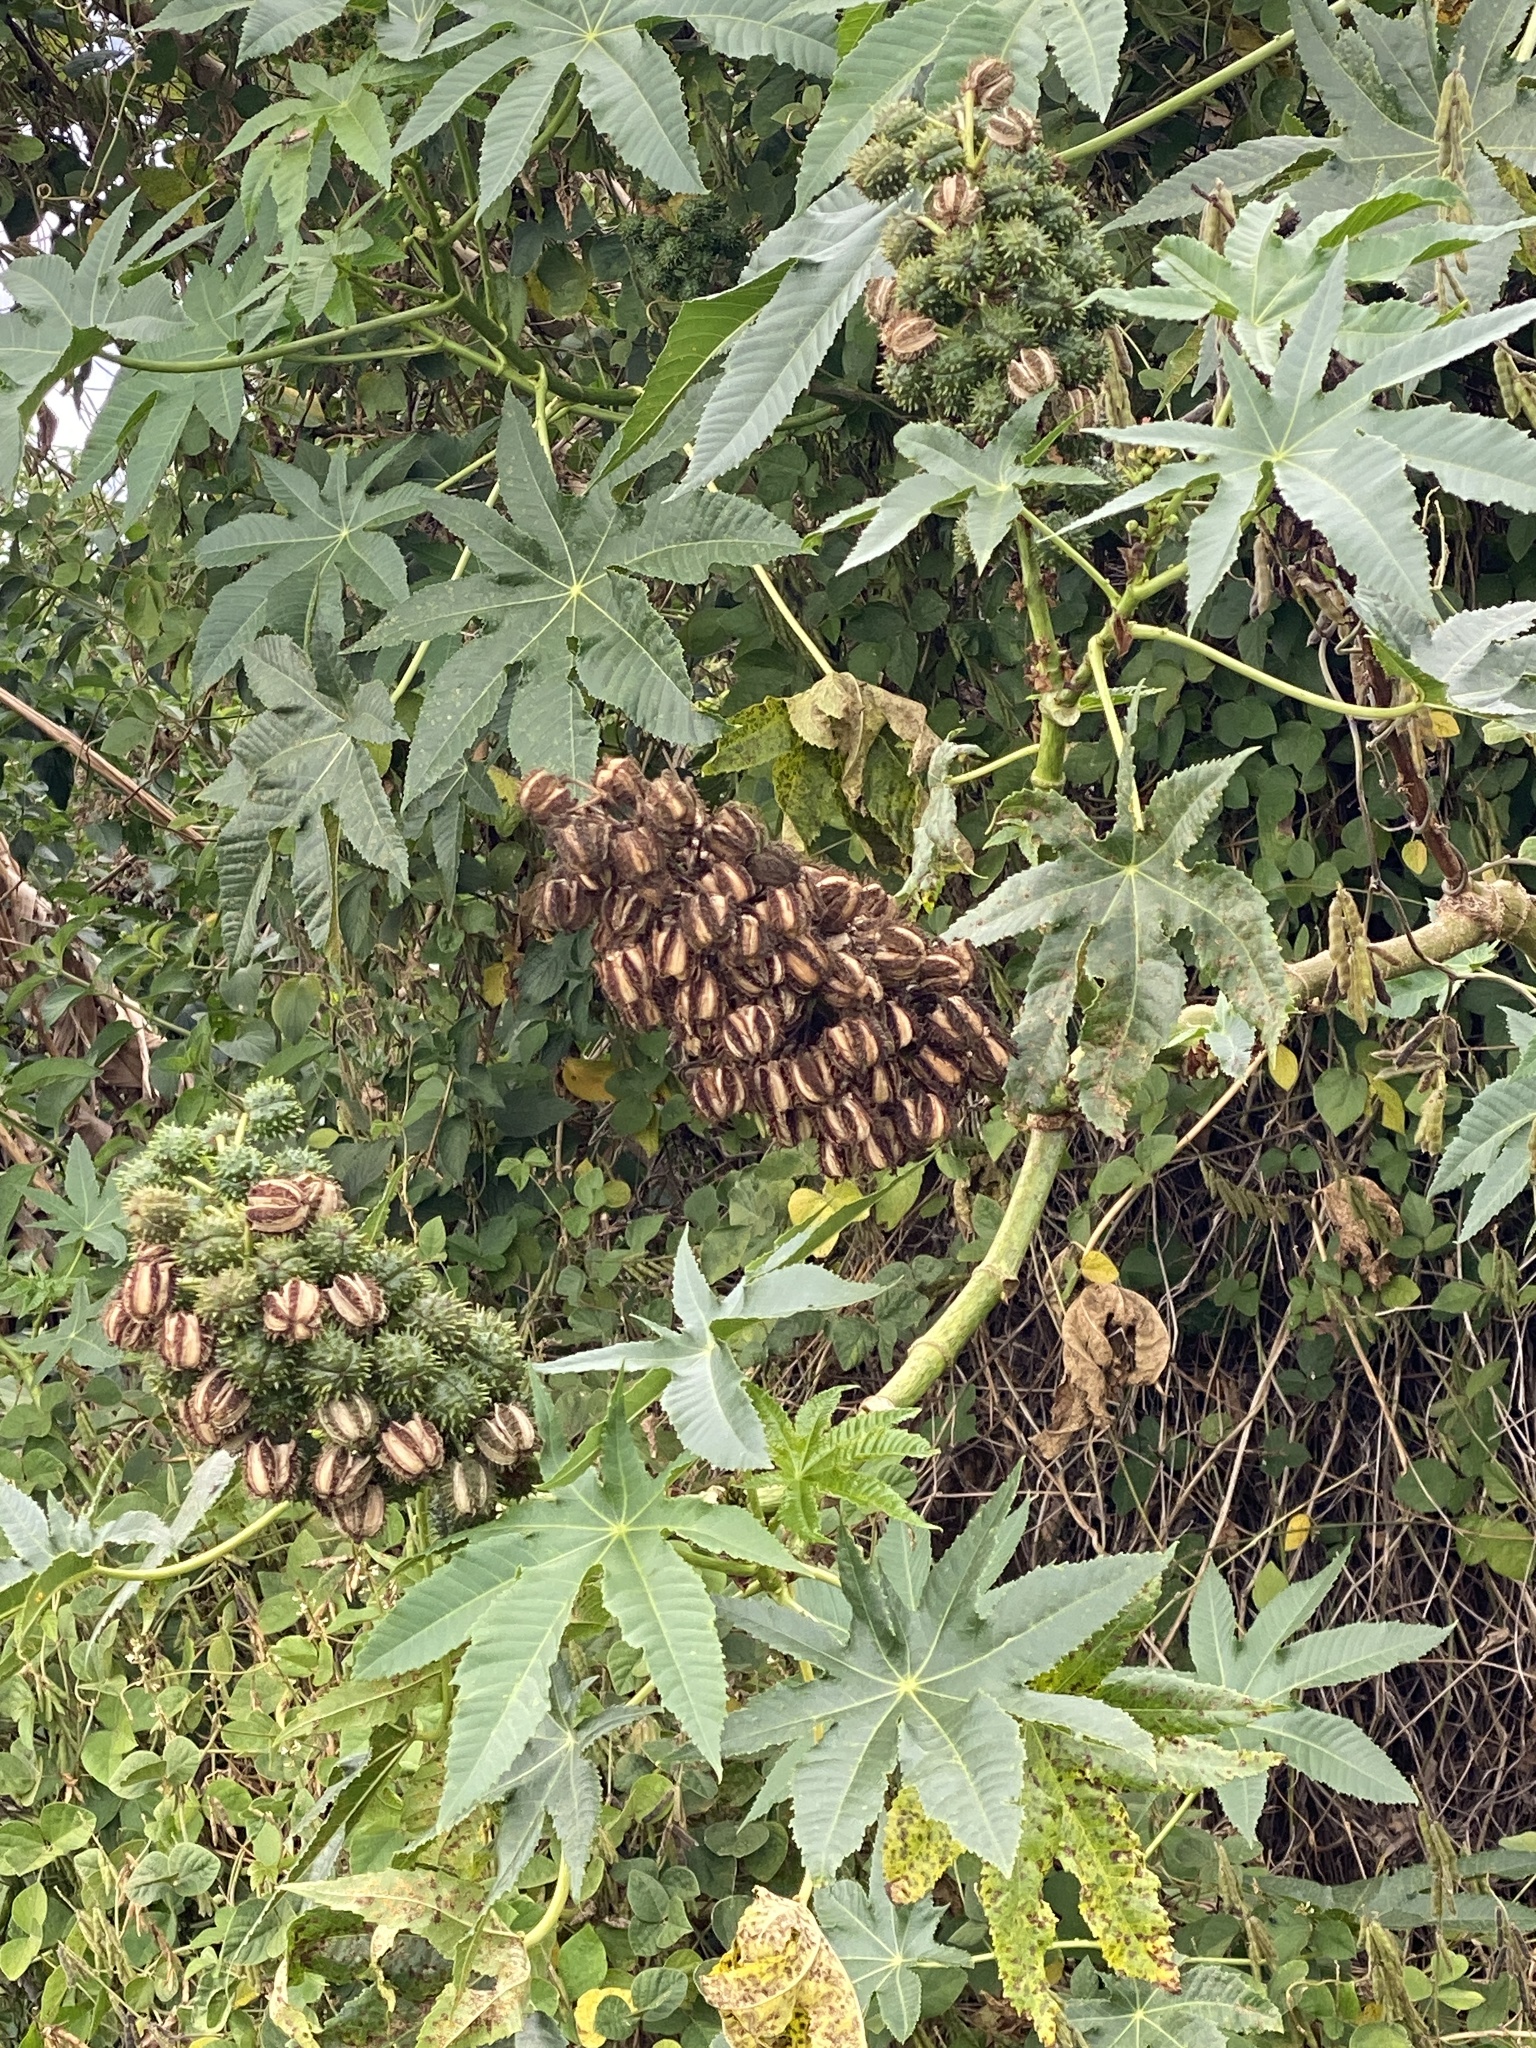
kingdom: Plantae
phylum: Tracheophyta
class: Magnoliopsida
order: Malpighiales
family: Euphorbiaceae
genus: Ricinus
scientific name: Ricinus communis
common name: Castor-oil-plant
